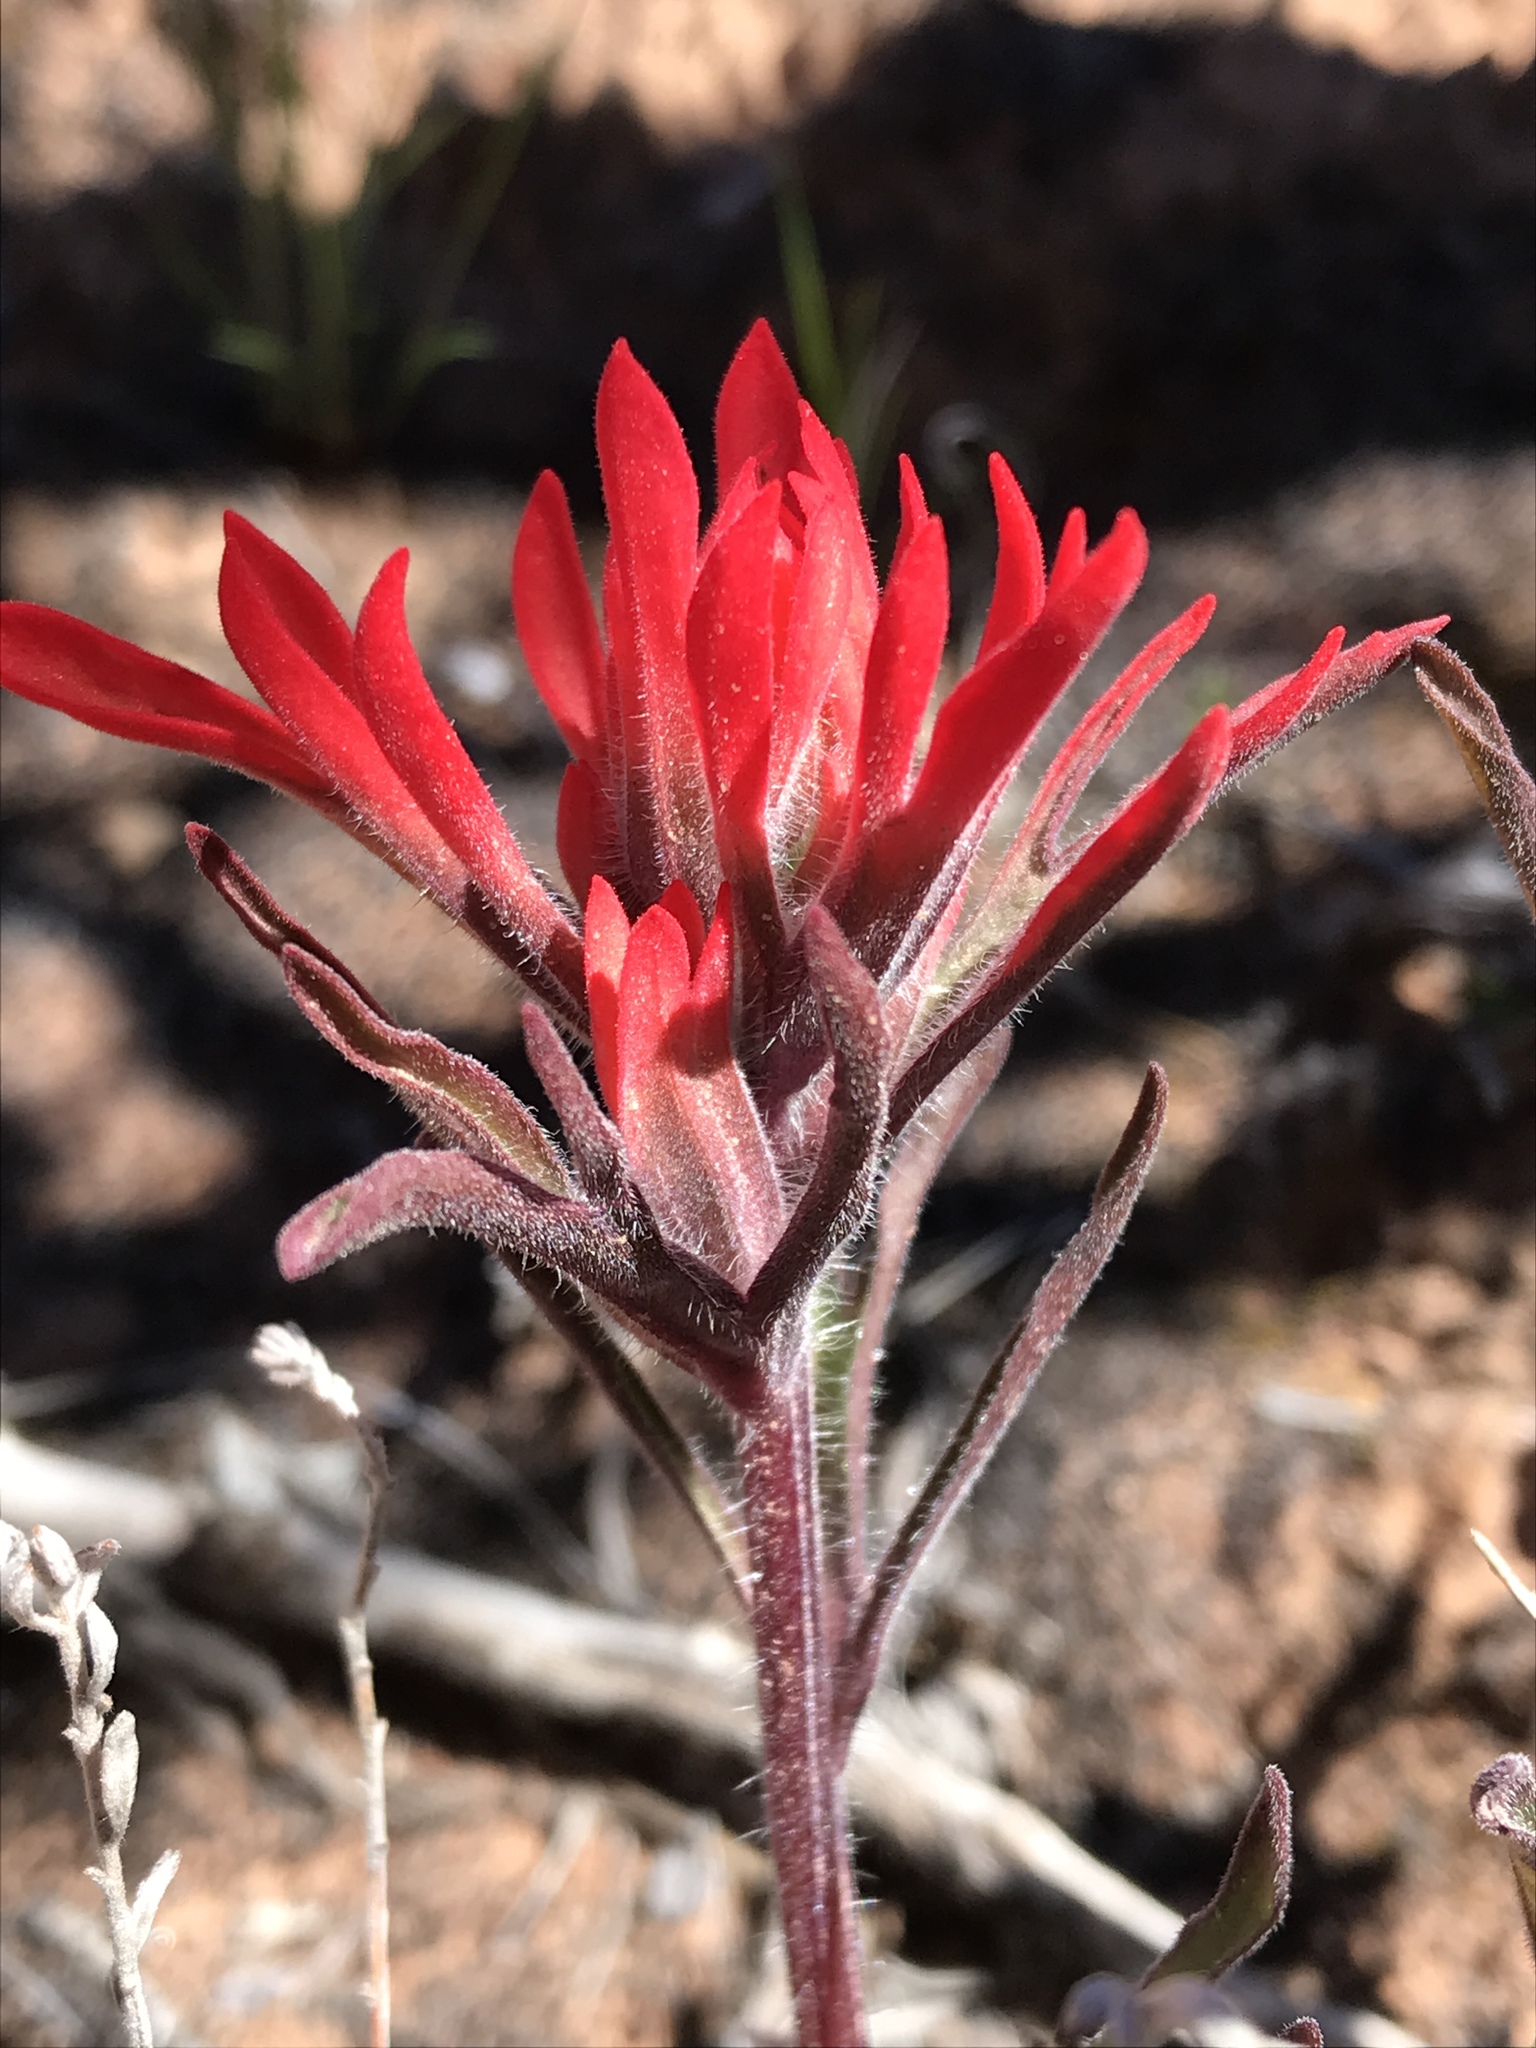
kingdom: Plantae
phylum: Tracheophyta
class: Magnoliopsida
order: Lamiales
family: Orobanchaceae
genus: Castilleja
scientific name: Castilleja chromosa
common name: Desert paintbrush
